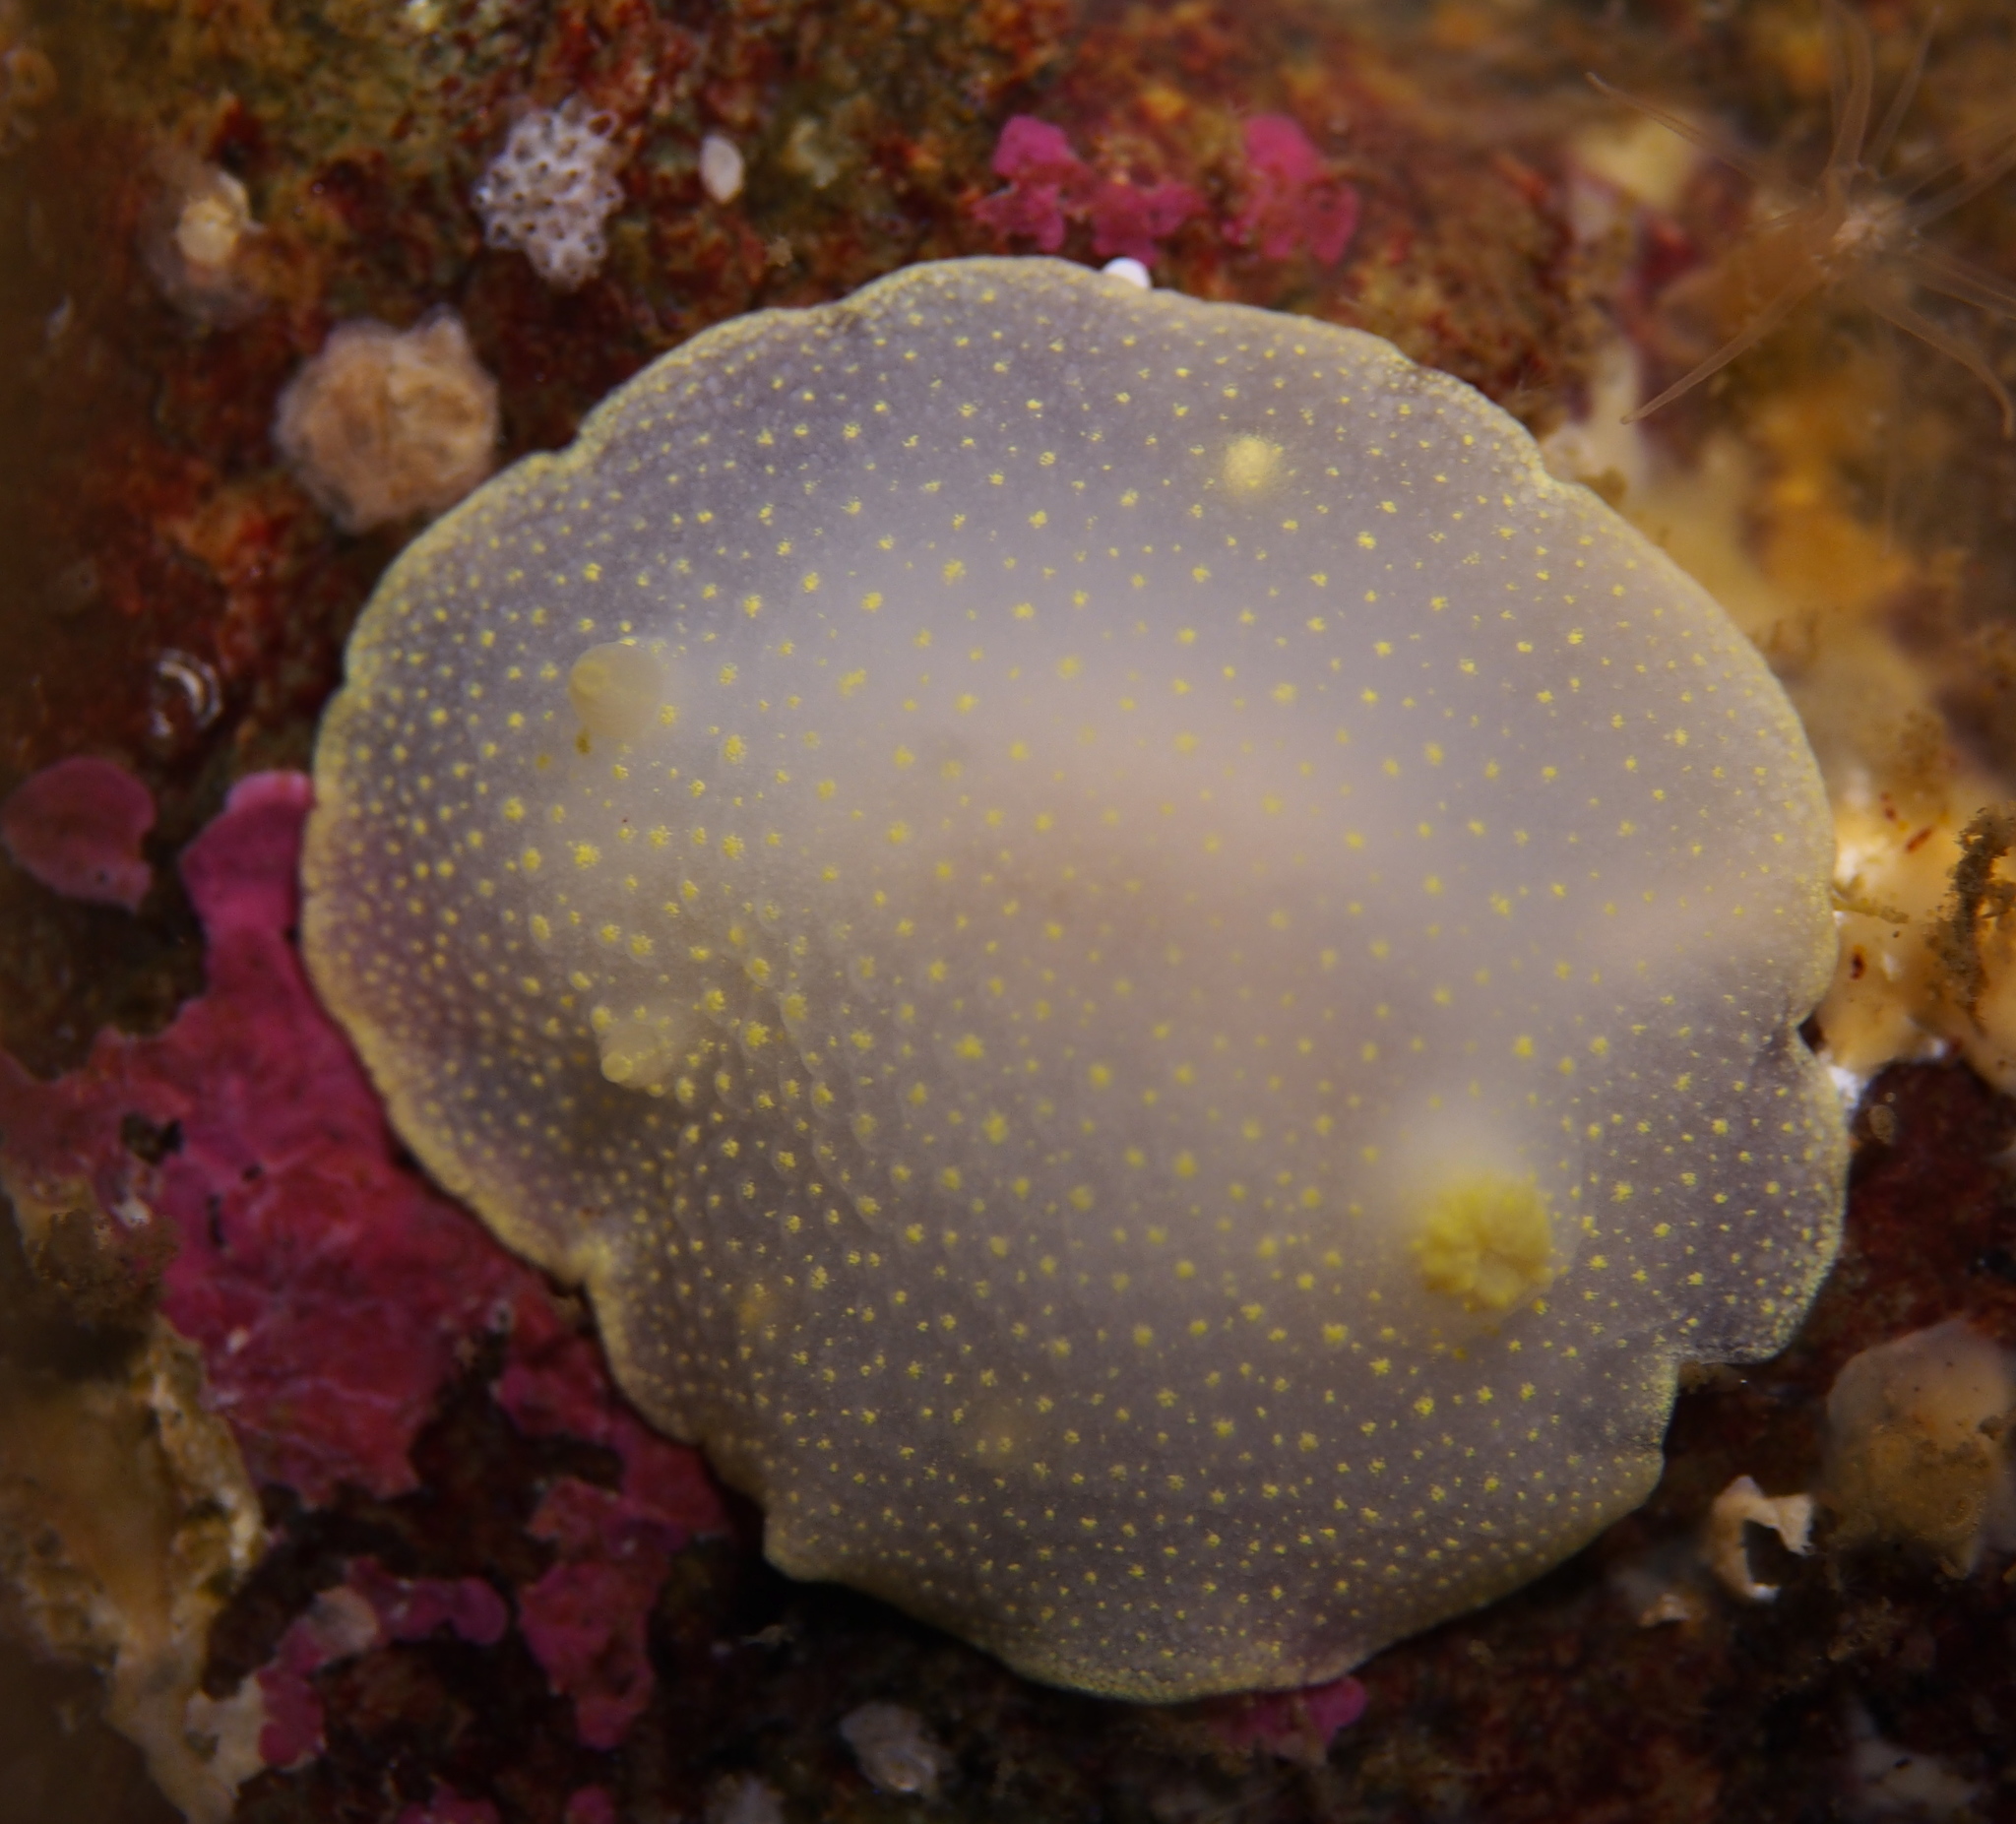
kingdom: Animalia
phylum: Mollusca
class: Gastropoda
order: Nudibranchia
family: Cadlinidae
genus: Cadlina
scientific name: Cadlina laevis
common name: White atlantic cadlina
